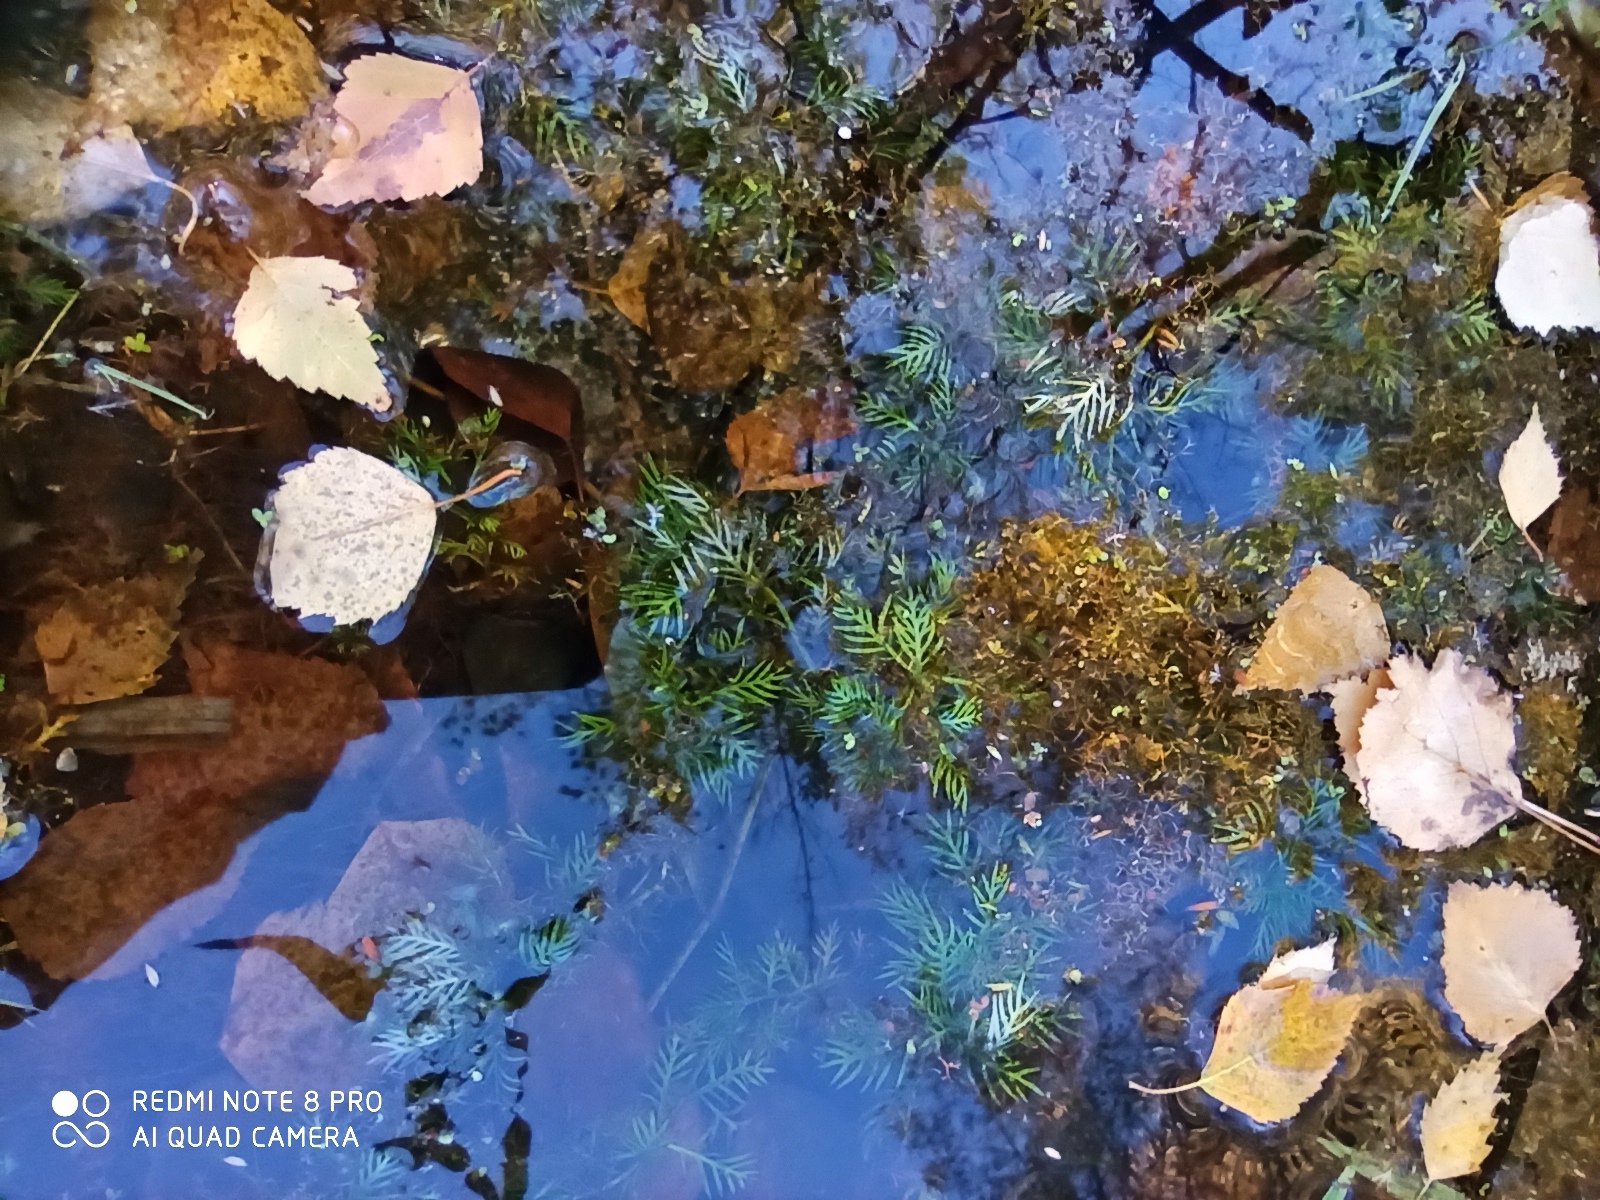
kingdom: Plantae
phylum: Tracheophyta
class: Magnoliopsida
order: Ericales
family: Primulaceae
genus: Hottonia
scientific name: Hottonia palustris
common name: Water-violet
